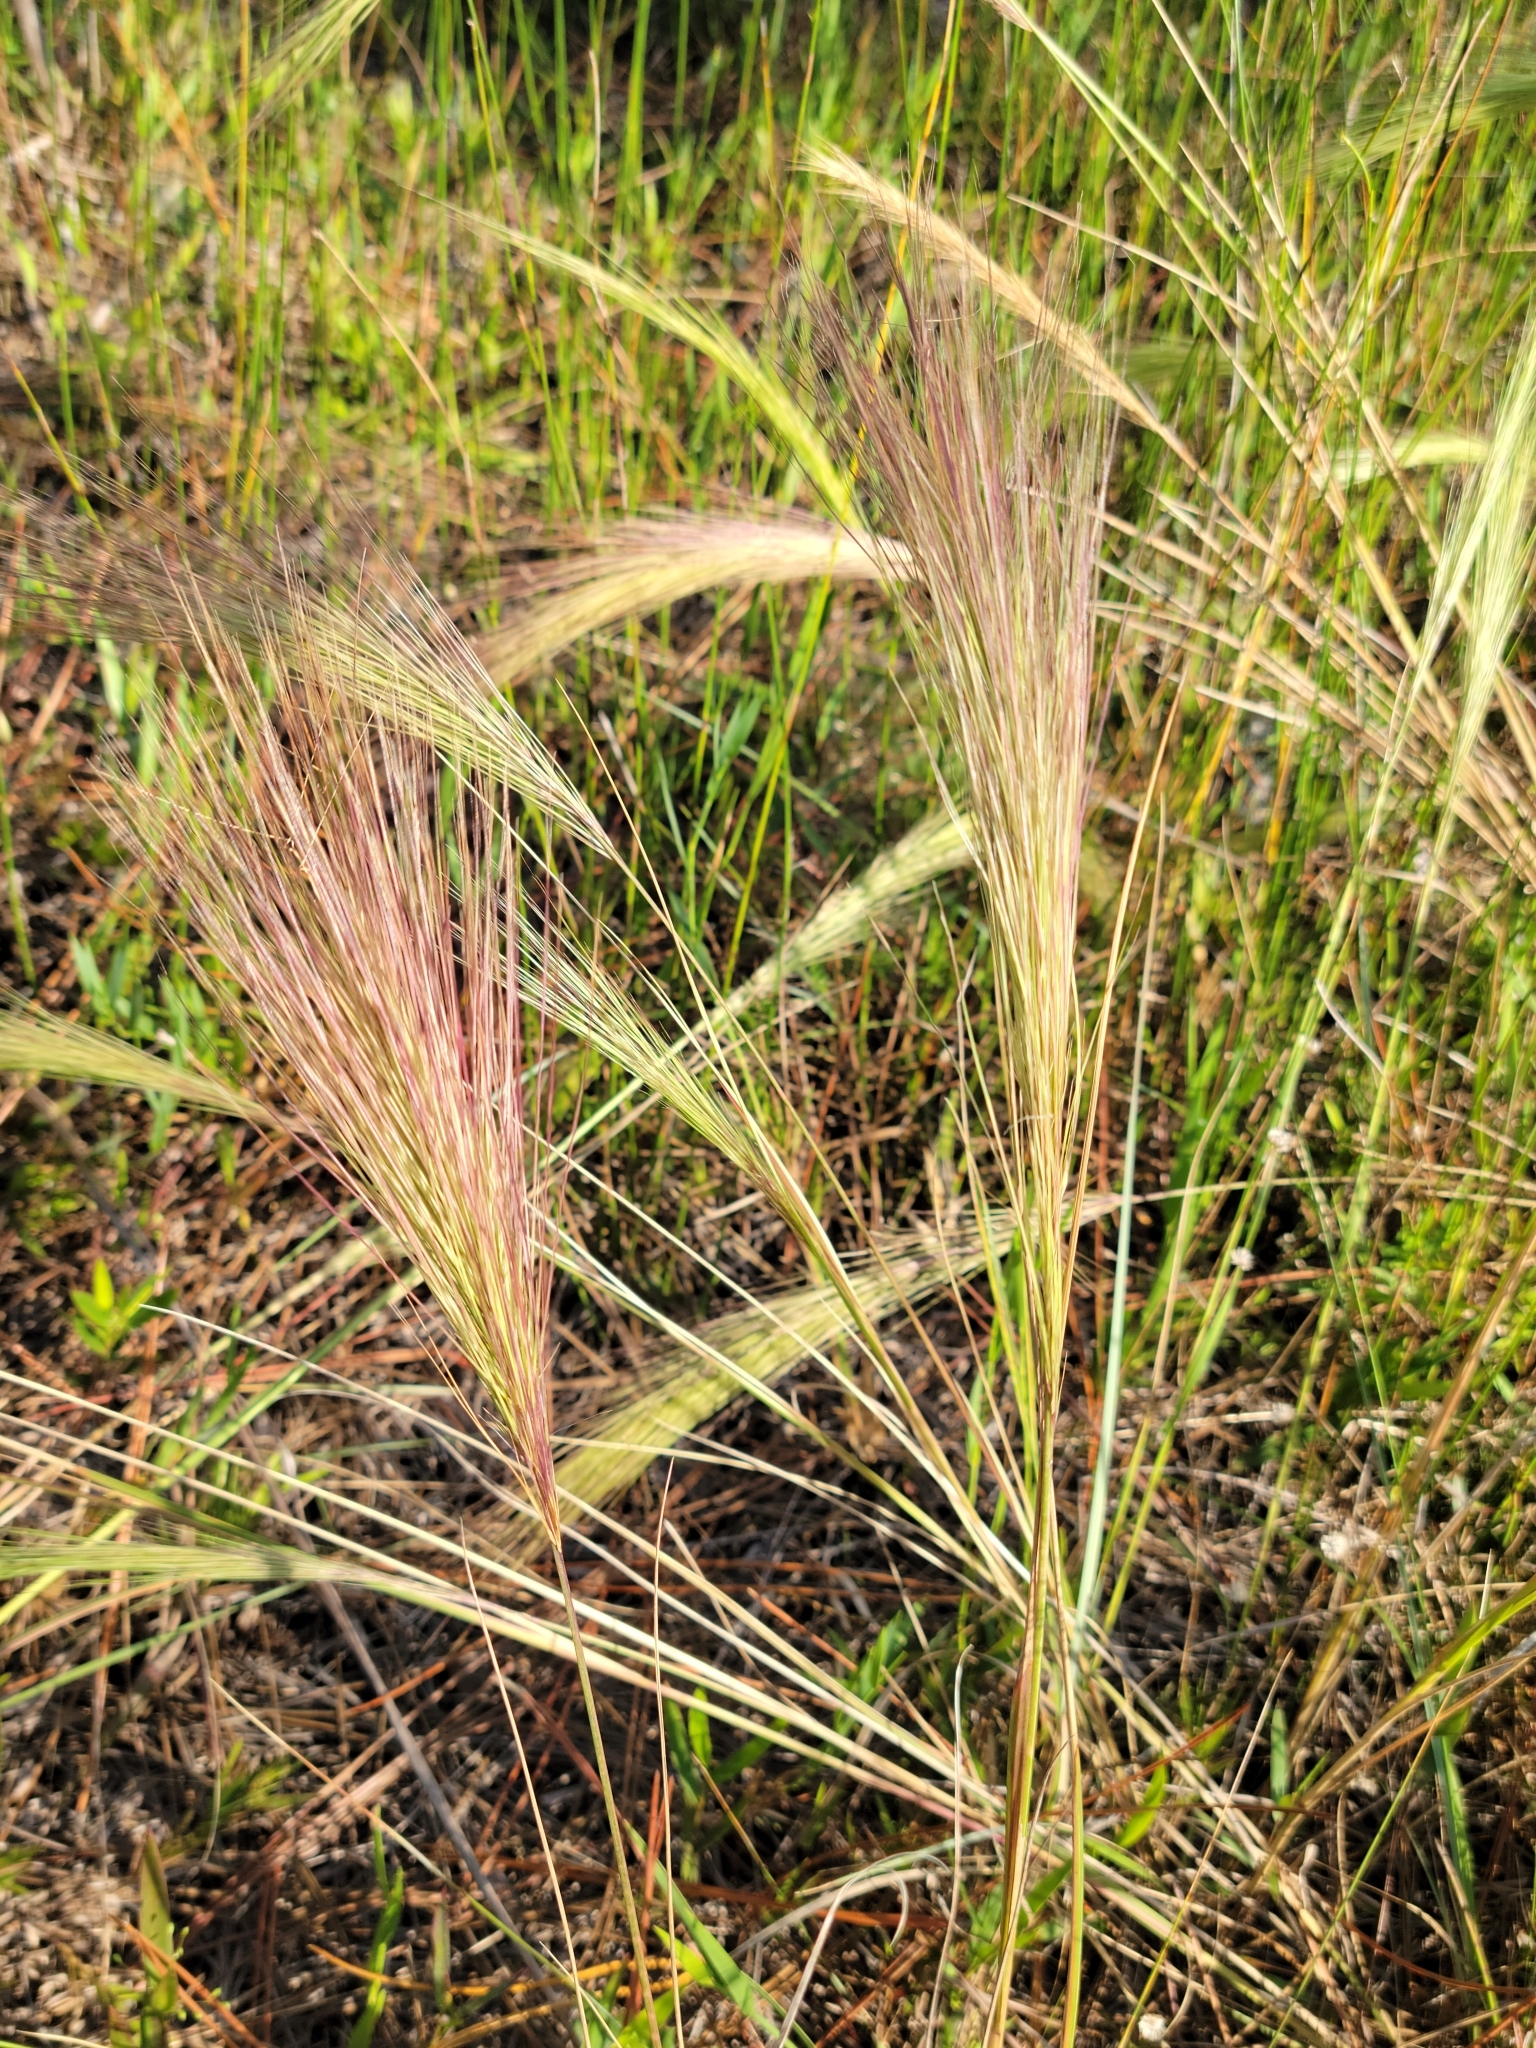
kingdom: Plantae
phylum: Tracheophyta
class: Liliopsida
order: Poales
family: Poaceae
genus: Aristida
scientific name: Aristida spiciformis
